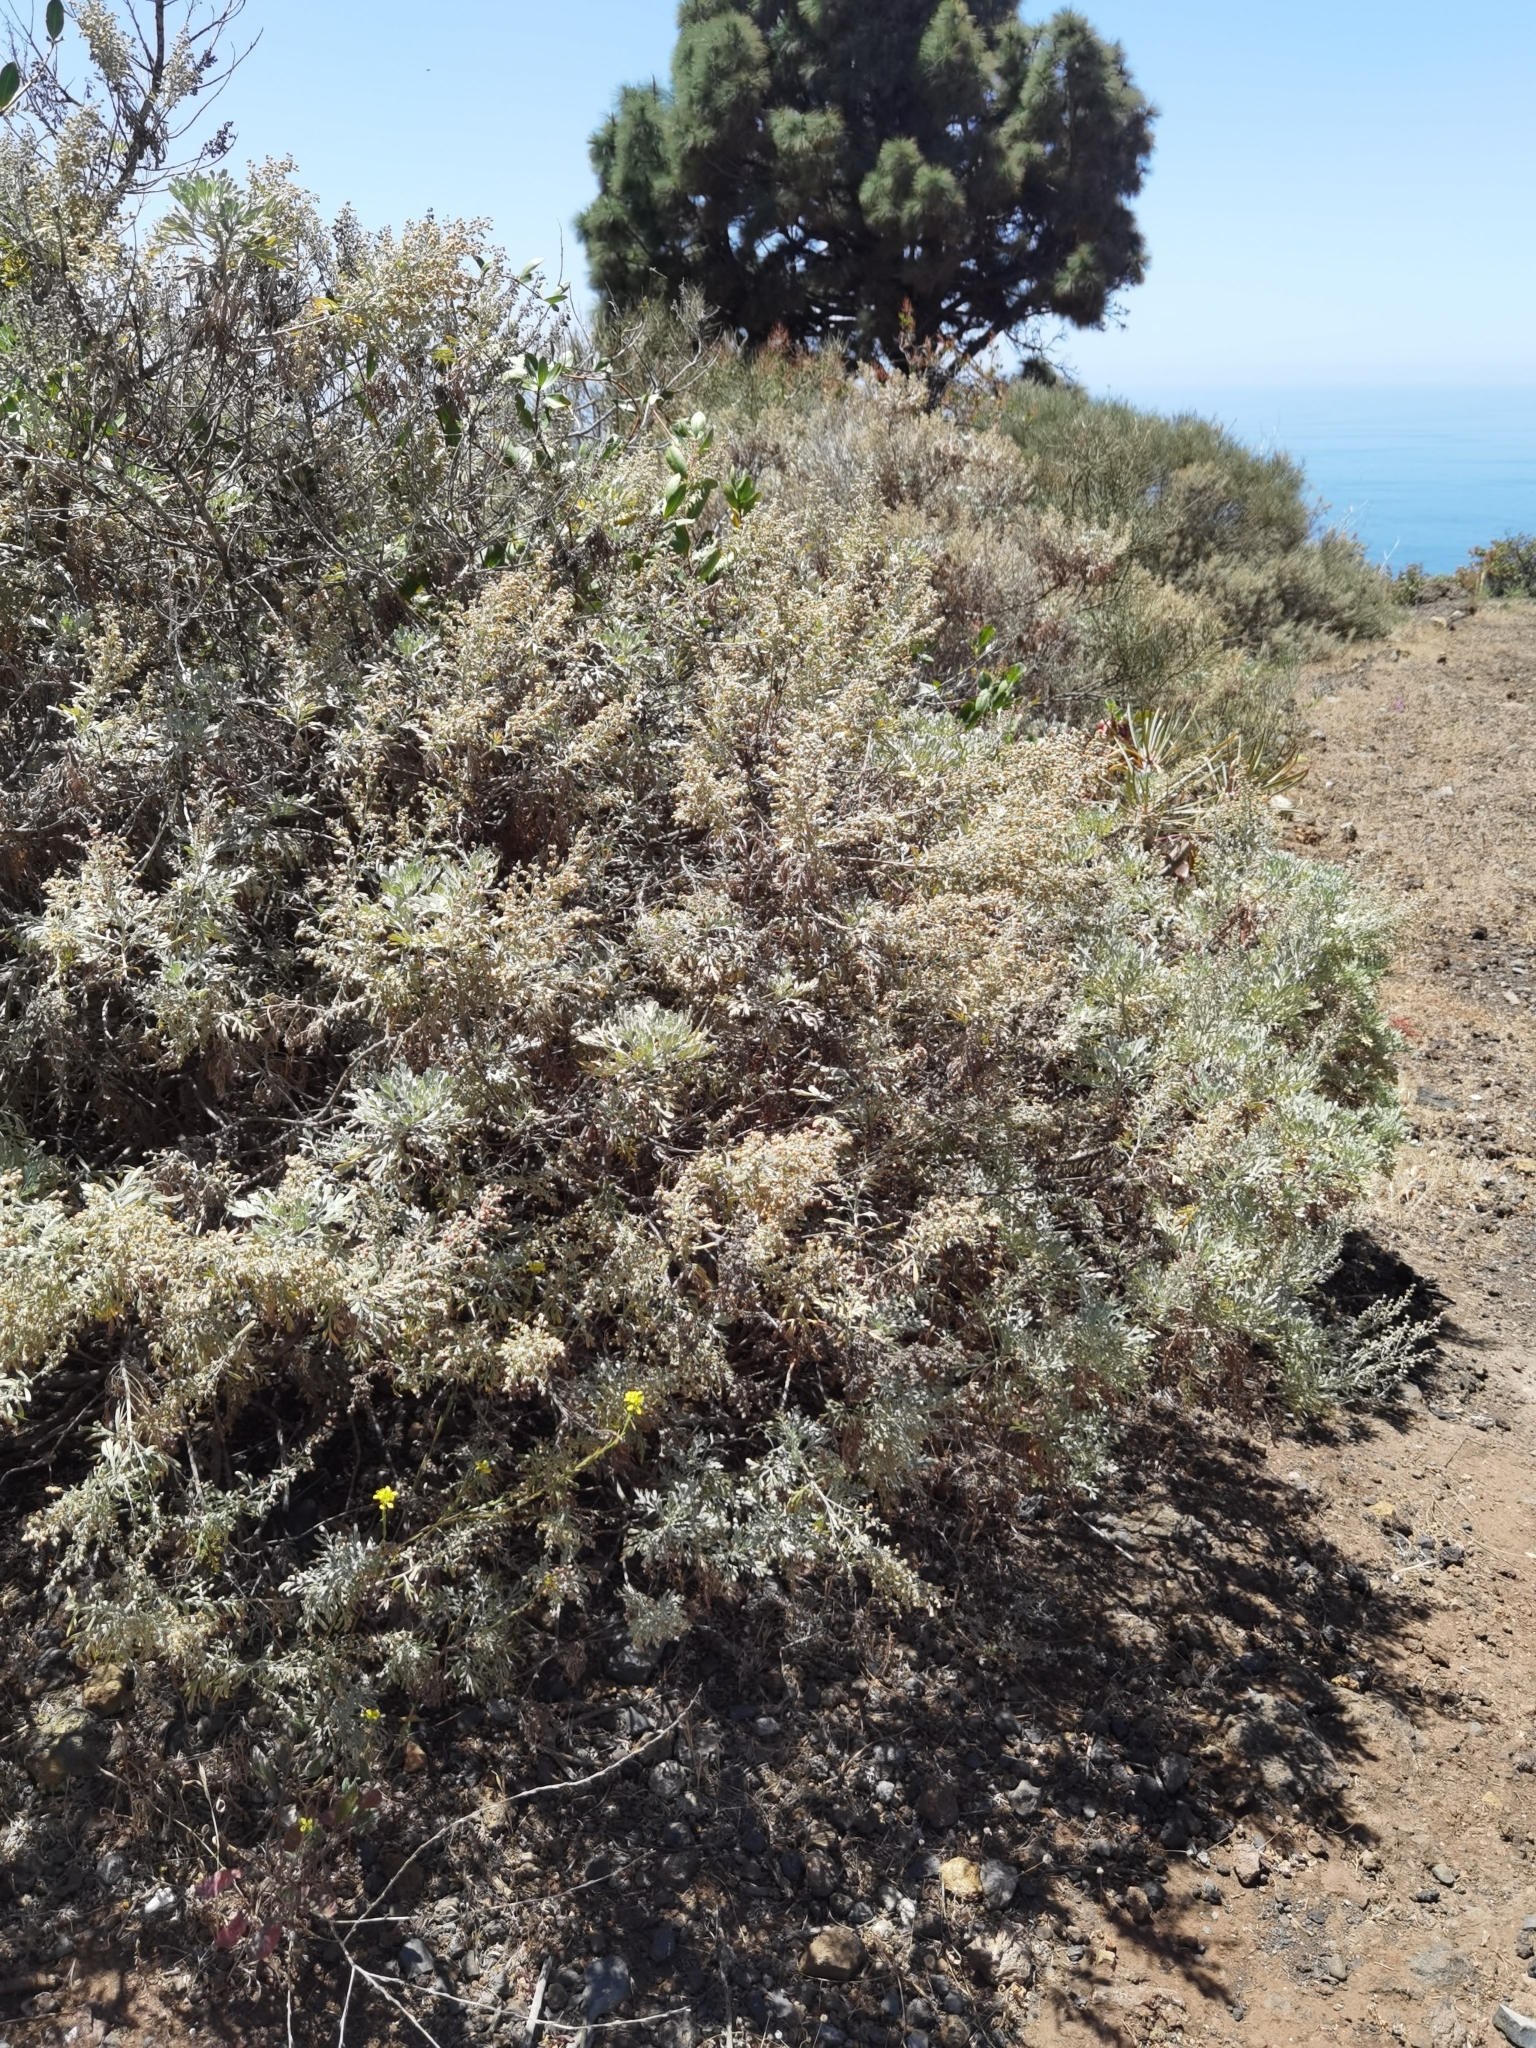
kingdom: Plantae
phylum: Tracheophyta
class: Magnoliopsida
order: Asterales
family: Asteraceae
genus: Artemisia
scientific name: Artemisia thuscula
